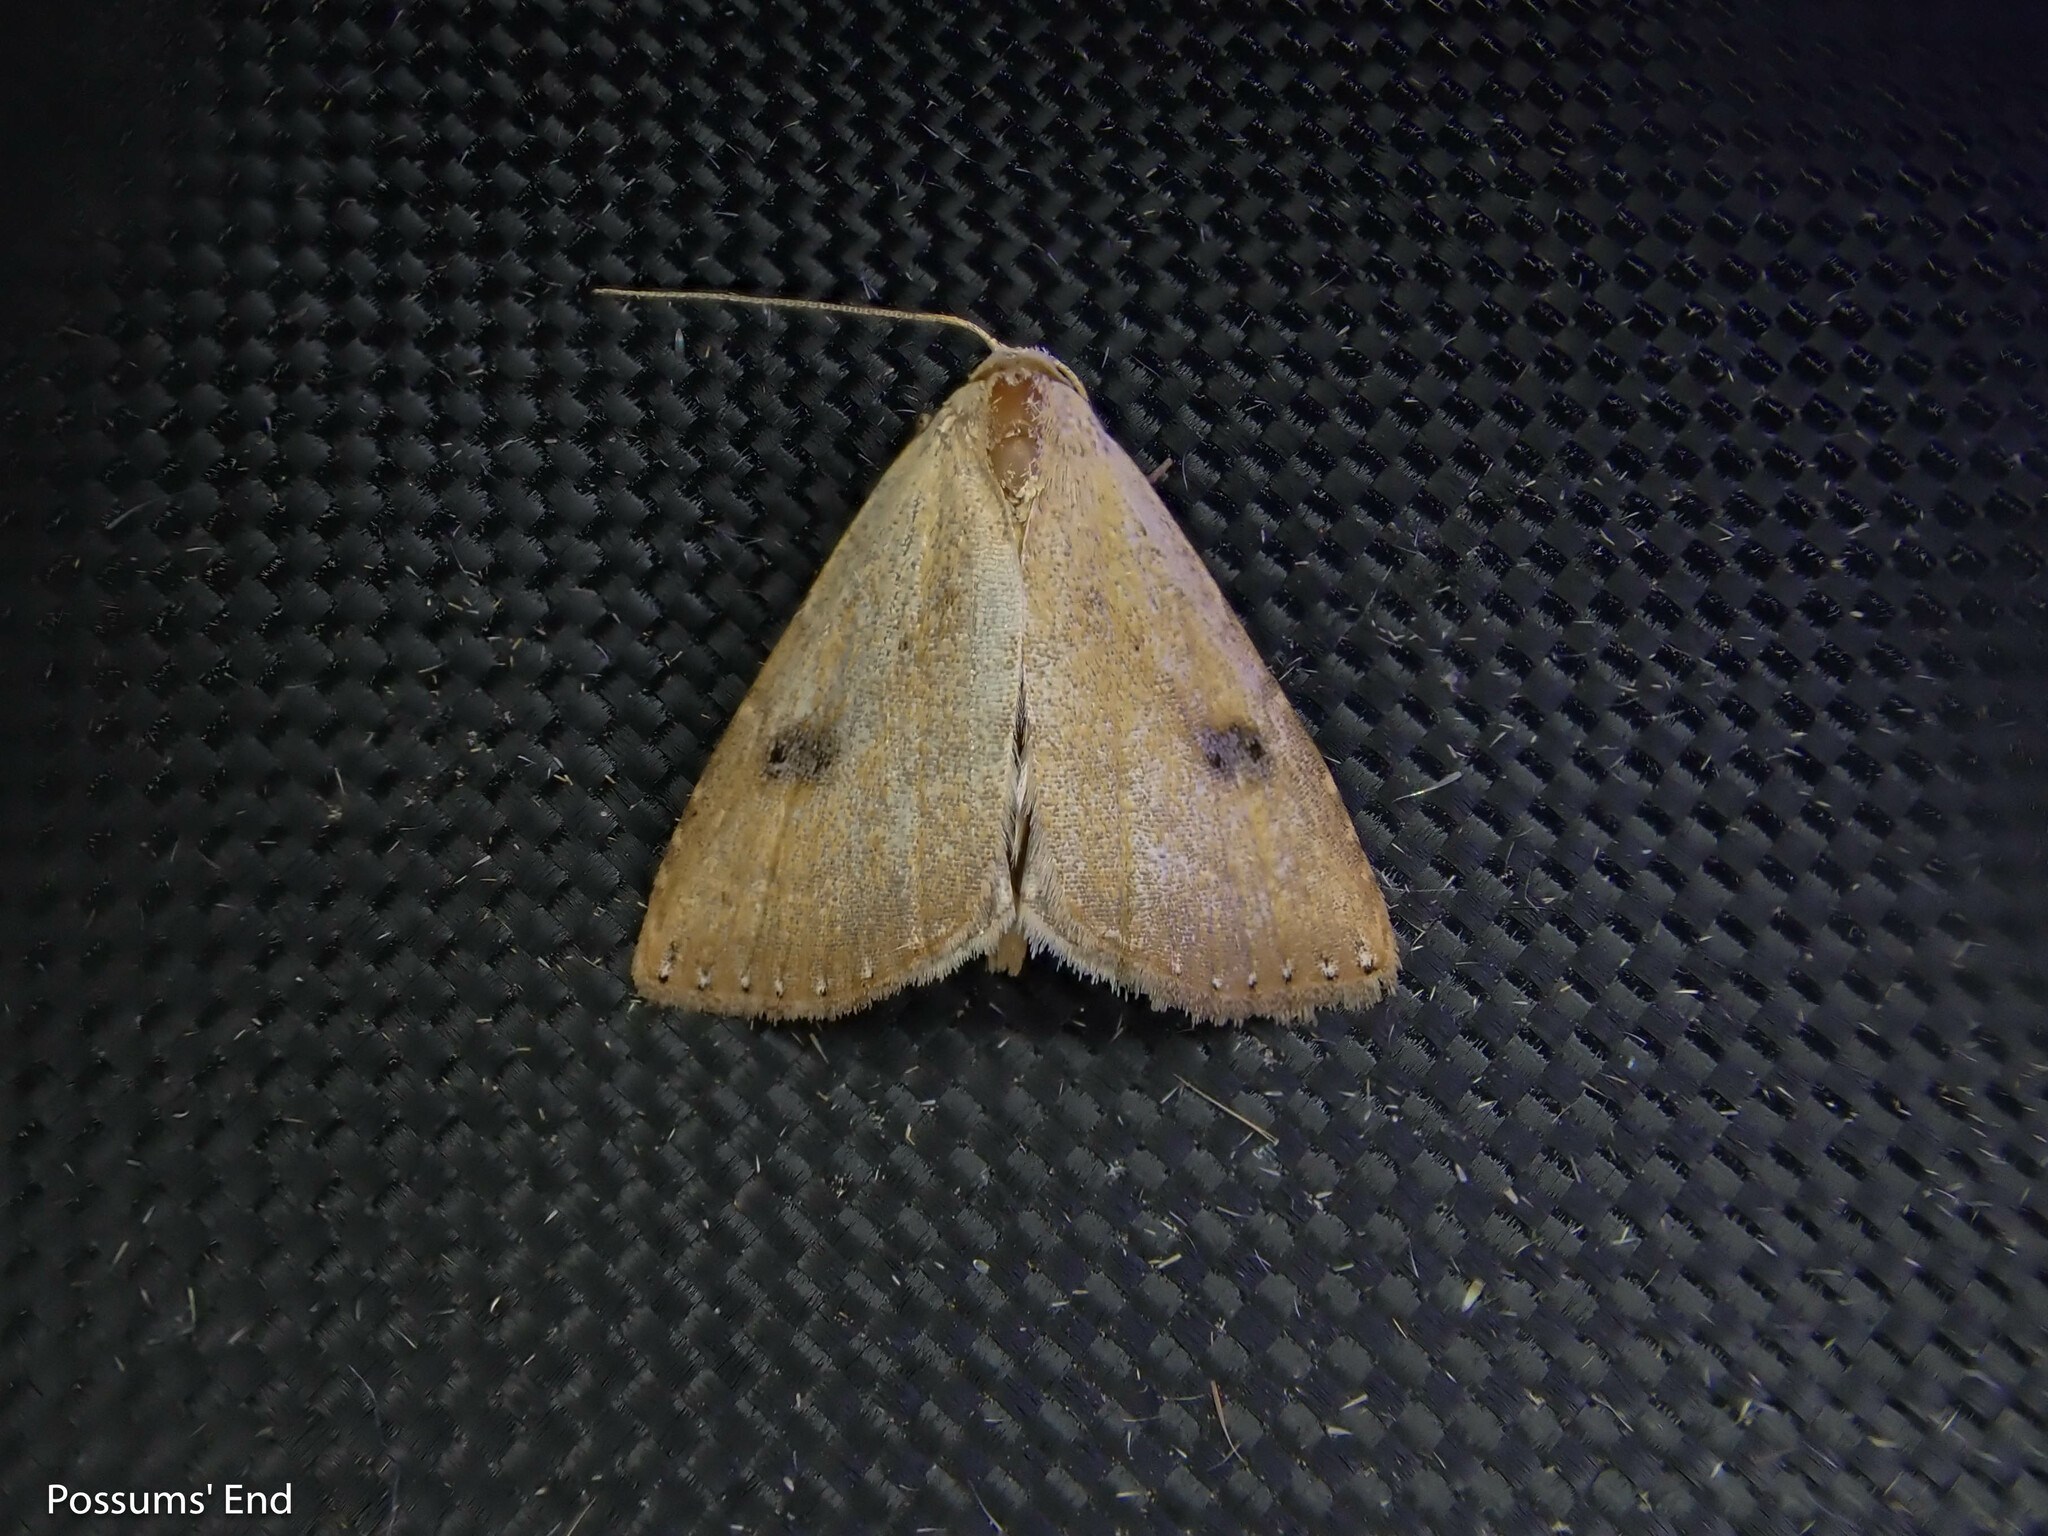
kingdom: Animalia
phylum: Arthropoda
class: Insecta
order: Lepidoptera
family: Erebidae
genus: Rivula
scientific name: Rivula sericealis
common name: Straw dot
